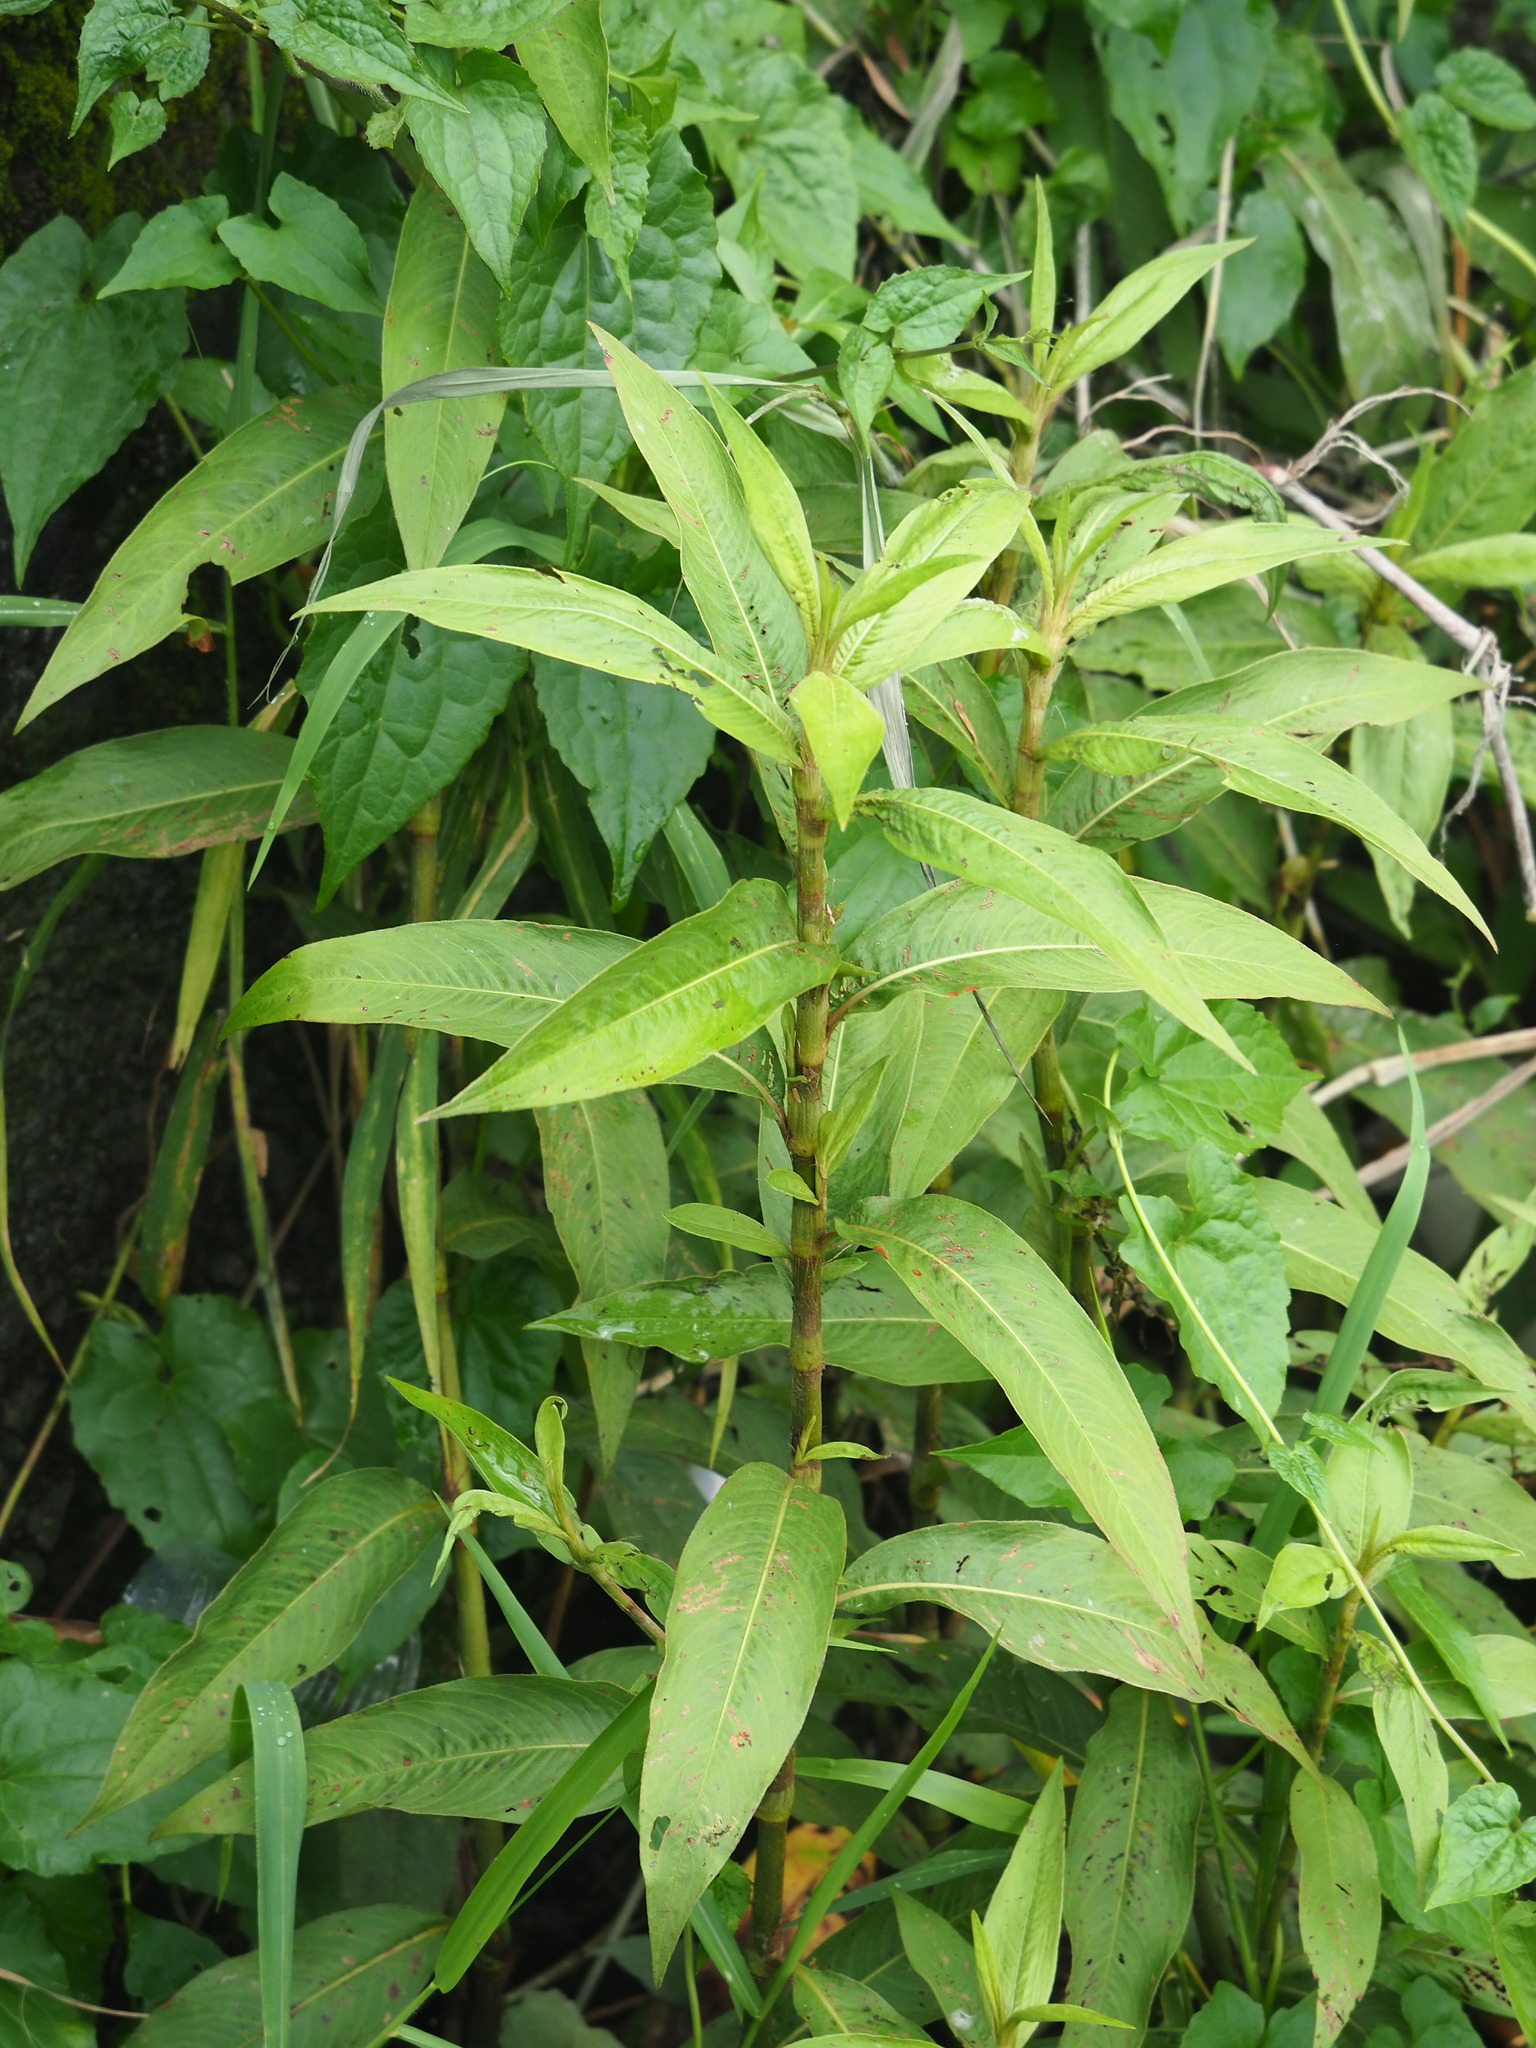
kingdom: Plantae
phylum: Tracheophyta
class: Magnoliopsida
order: Caryophyllales
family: Polygonaceae
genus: Persicaria
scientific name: Persicaria barbata
